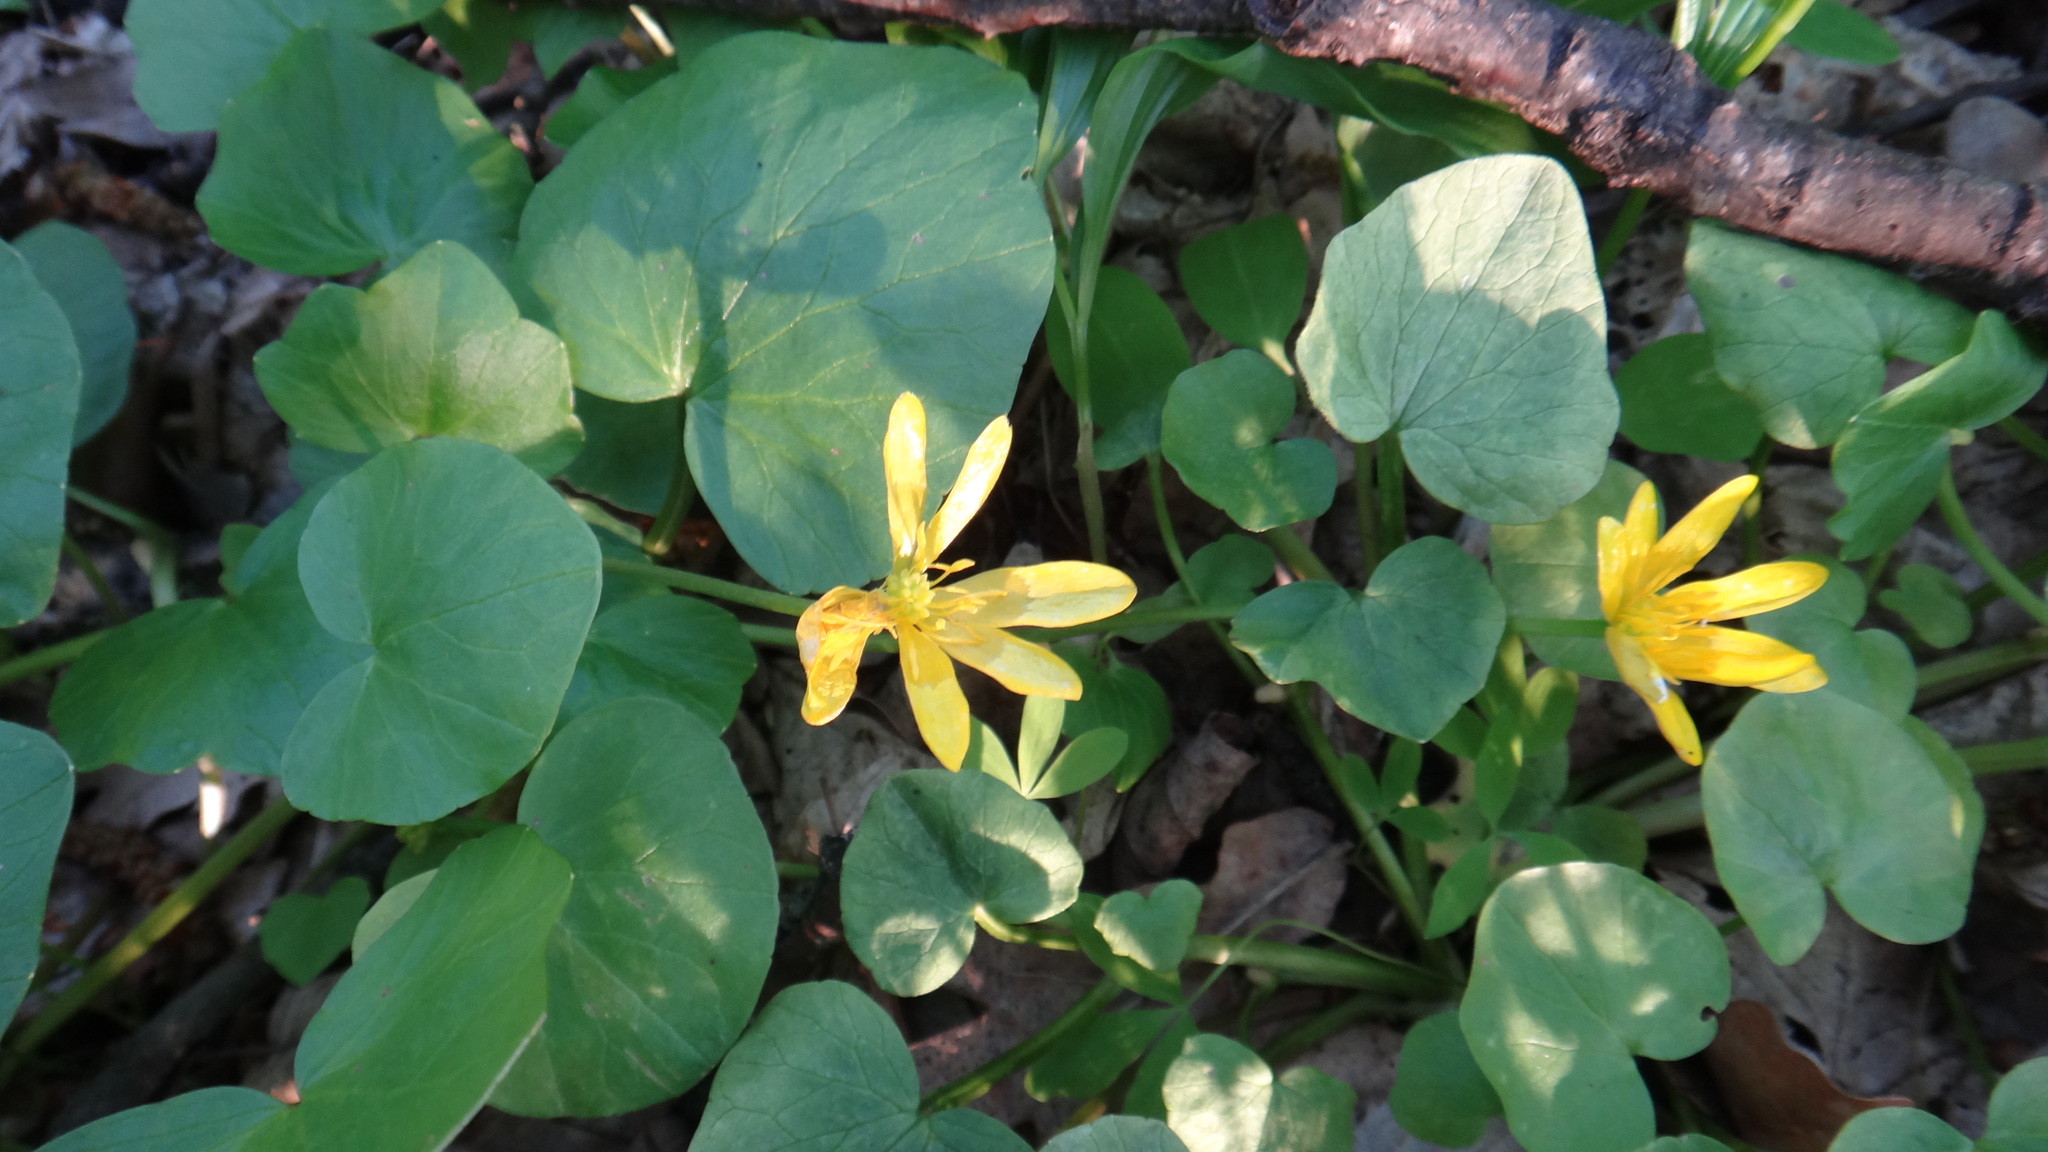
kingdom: Plantae
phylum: Tracheophyta
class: Magnoliopsida
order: Ranunculales
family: Ranunculaceae
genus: Ficaria
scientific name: Ficaria verna
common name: Lesser celandine
